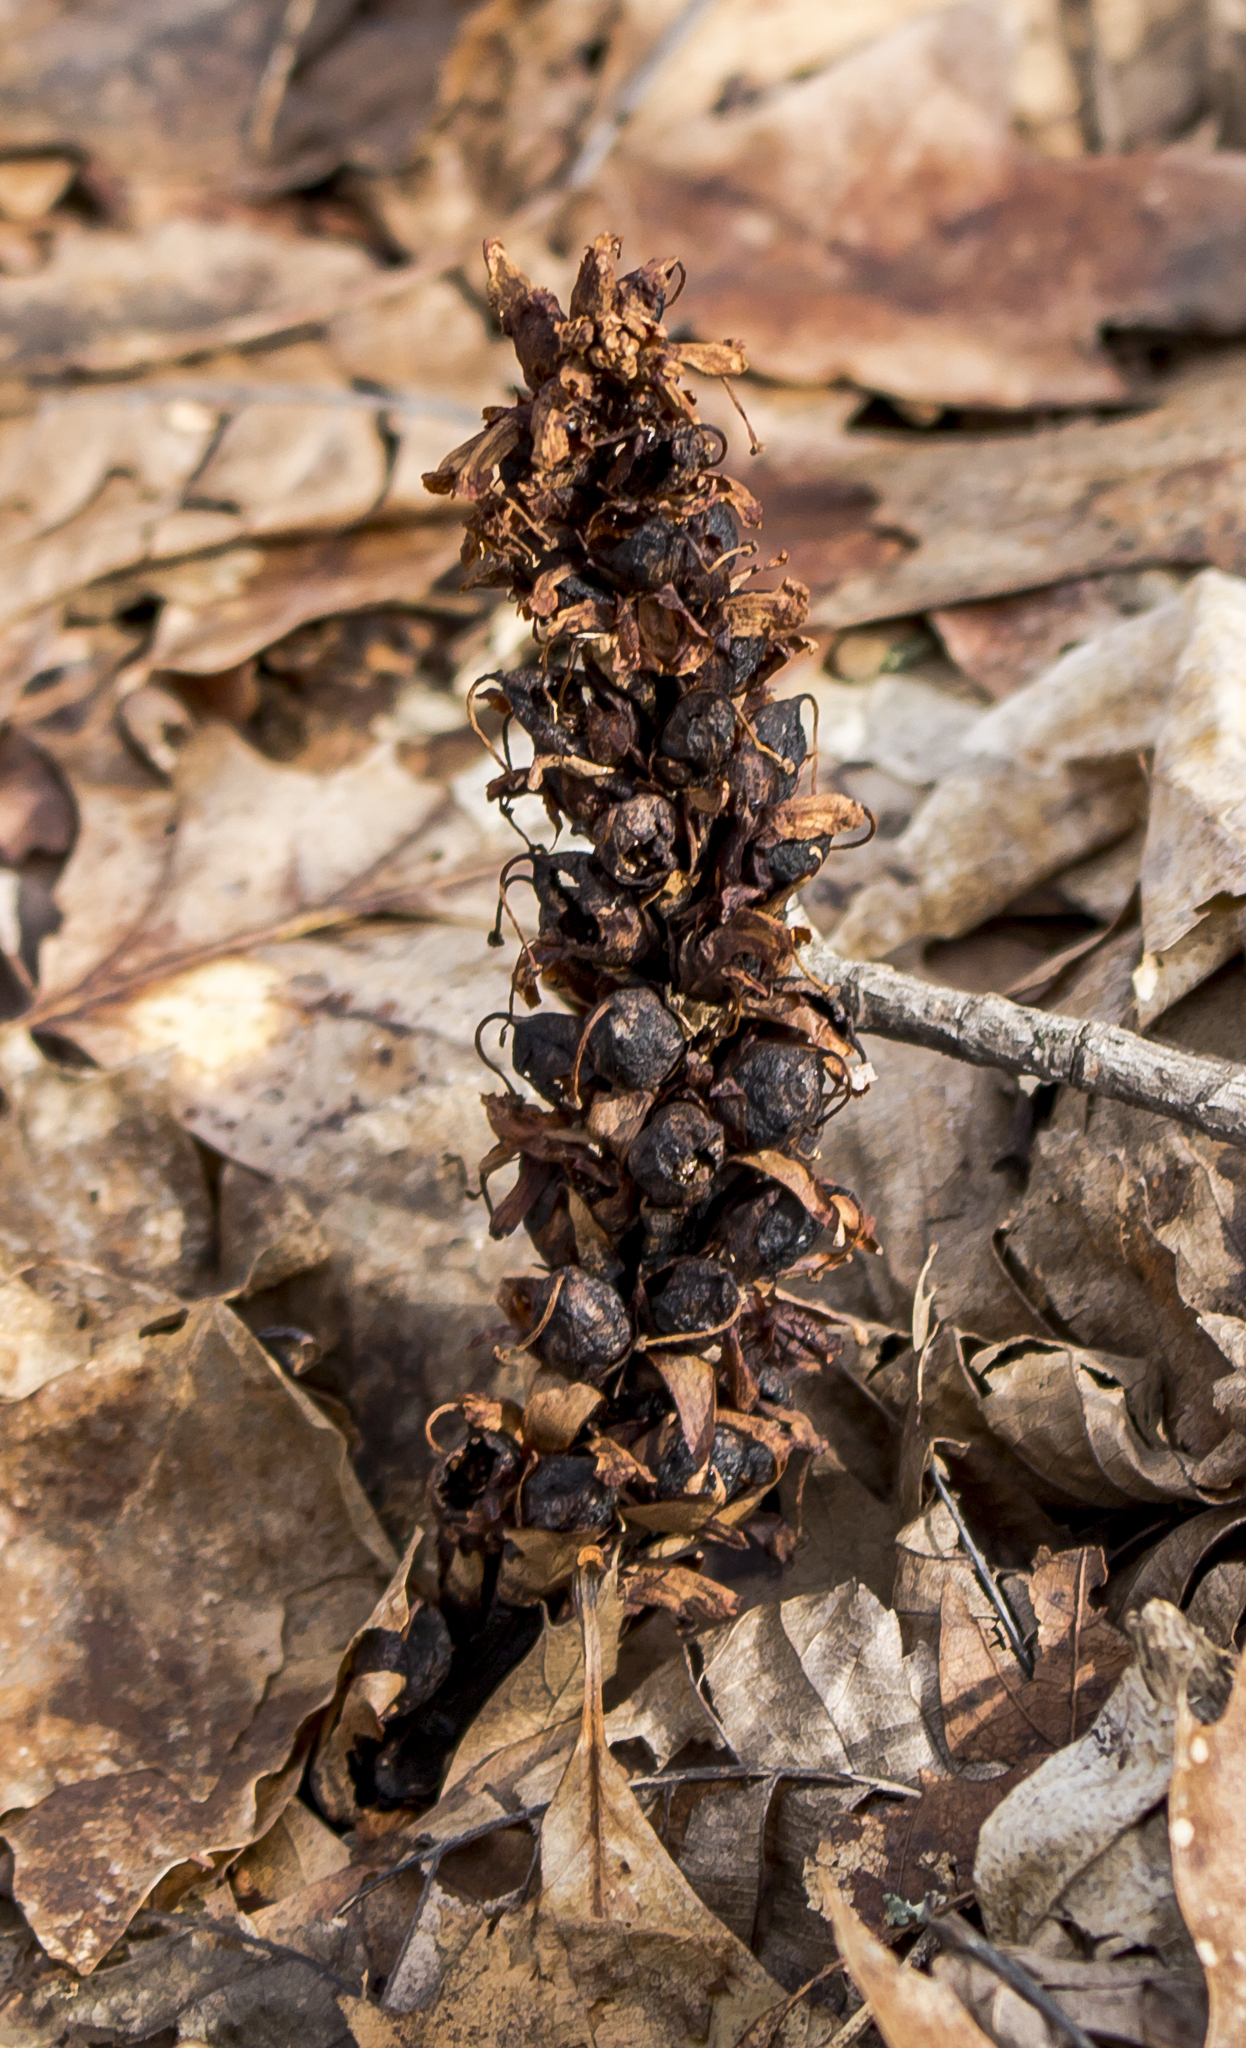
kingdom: Plantae
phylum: Tracheophyta
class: Magnoliopsida
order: Lamiales
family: Orobanchaceae
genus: Conopholis
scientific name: Conopholis americana
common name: American cancer-root
